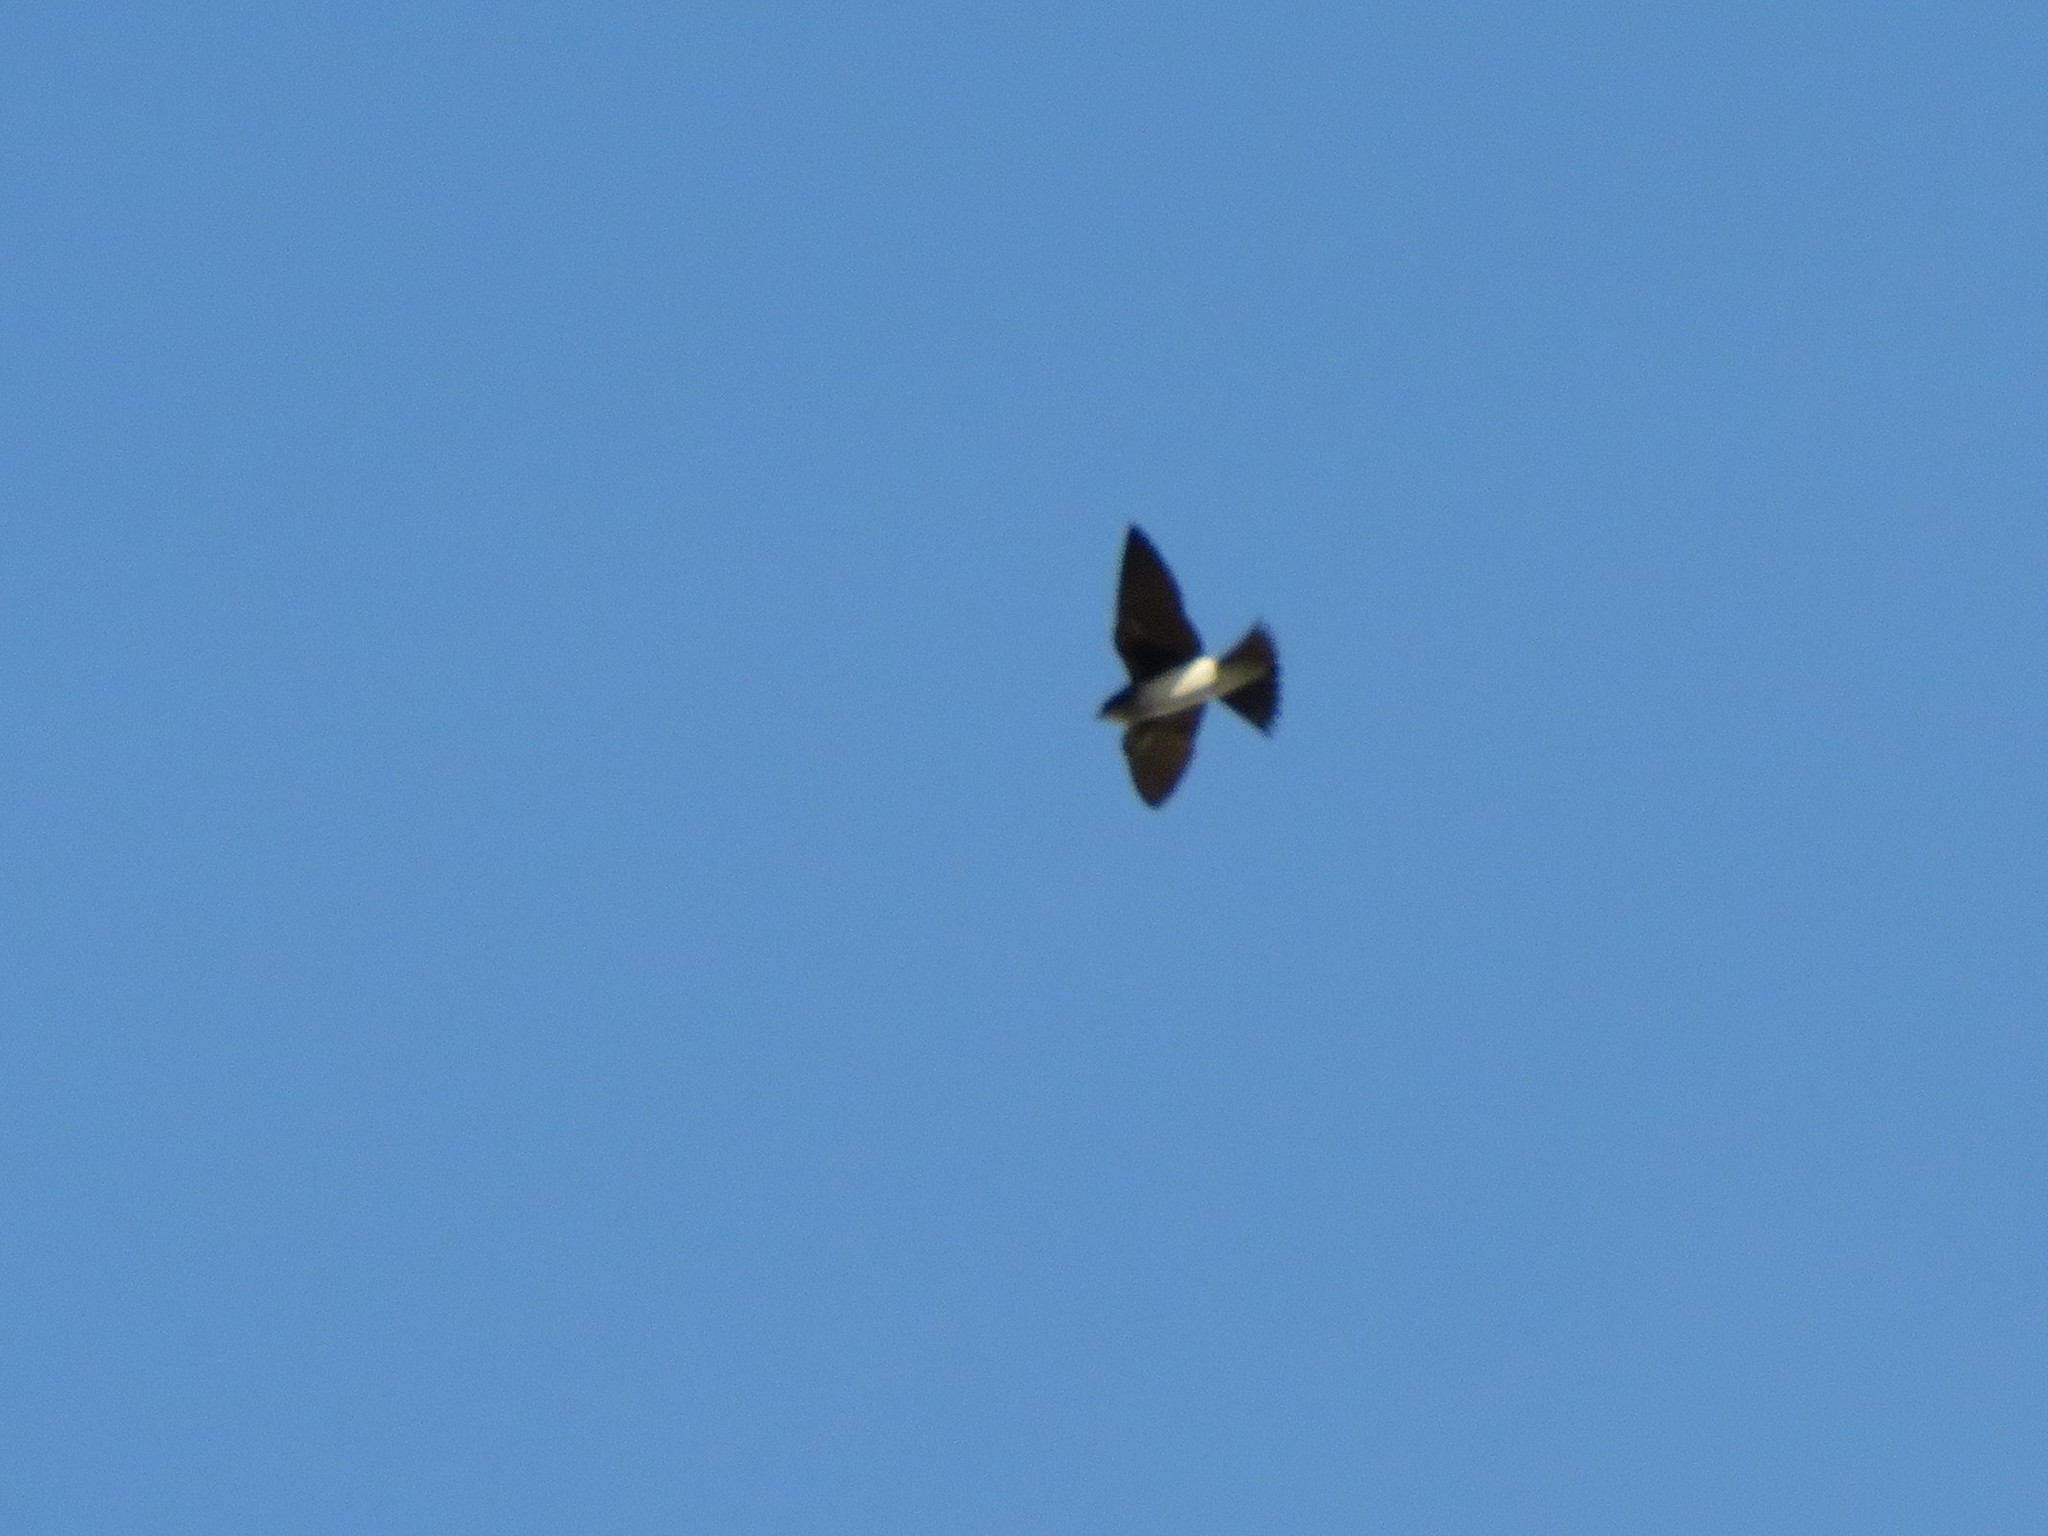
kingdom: Animalia
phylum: Chordata
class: Aves
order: Passeriformes
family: Hirundinidae
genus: Progne
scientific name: Progne chalybea
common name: Grey-breasted martin
